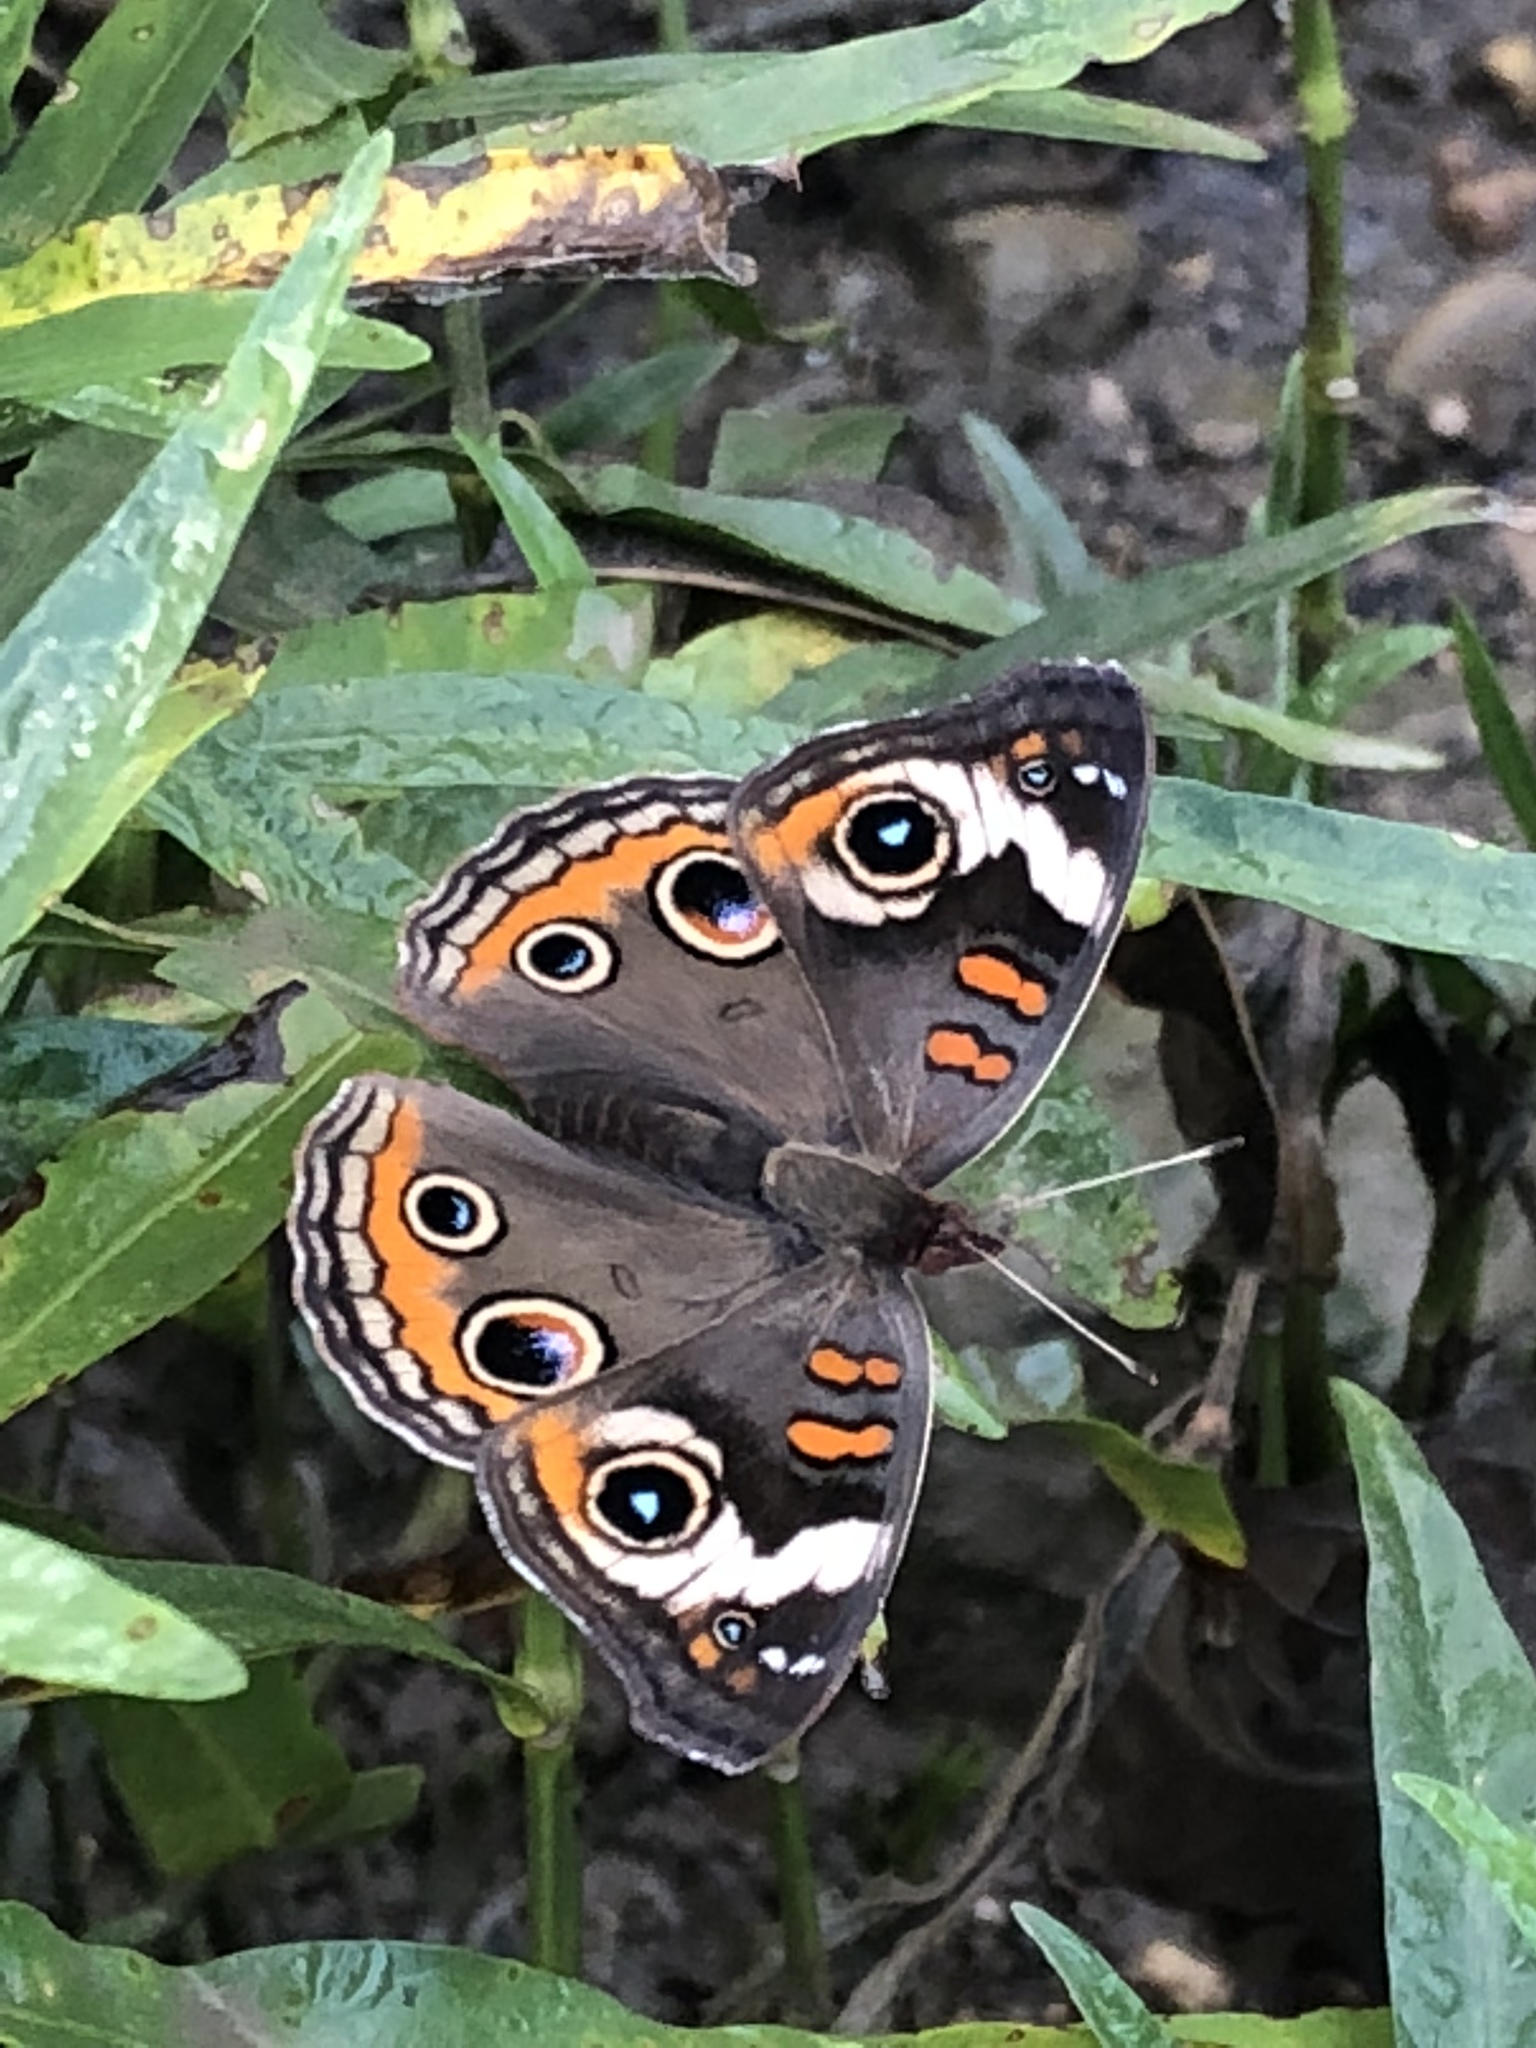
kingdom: Animalia
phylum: Arthropoda
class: Insecta
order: Lepidoptera
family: Nymphalidae
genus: Junonia
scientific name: Junonia coenia
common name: Common buckeye
